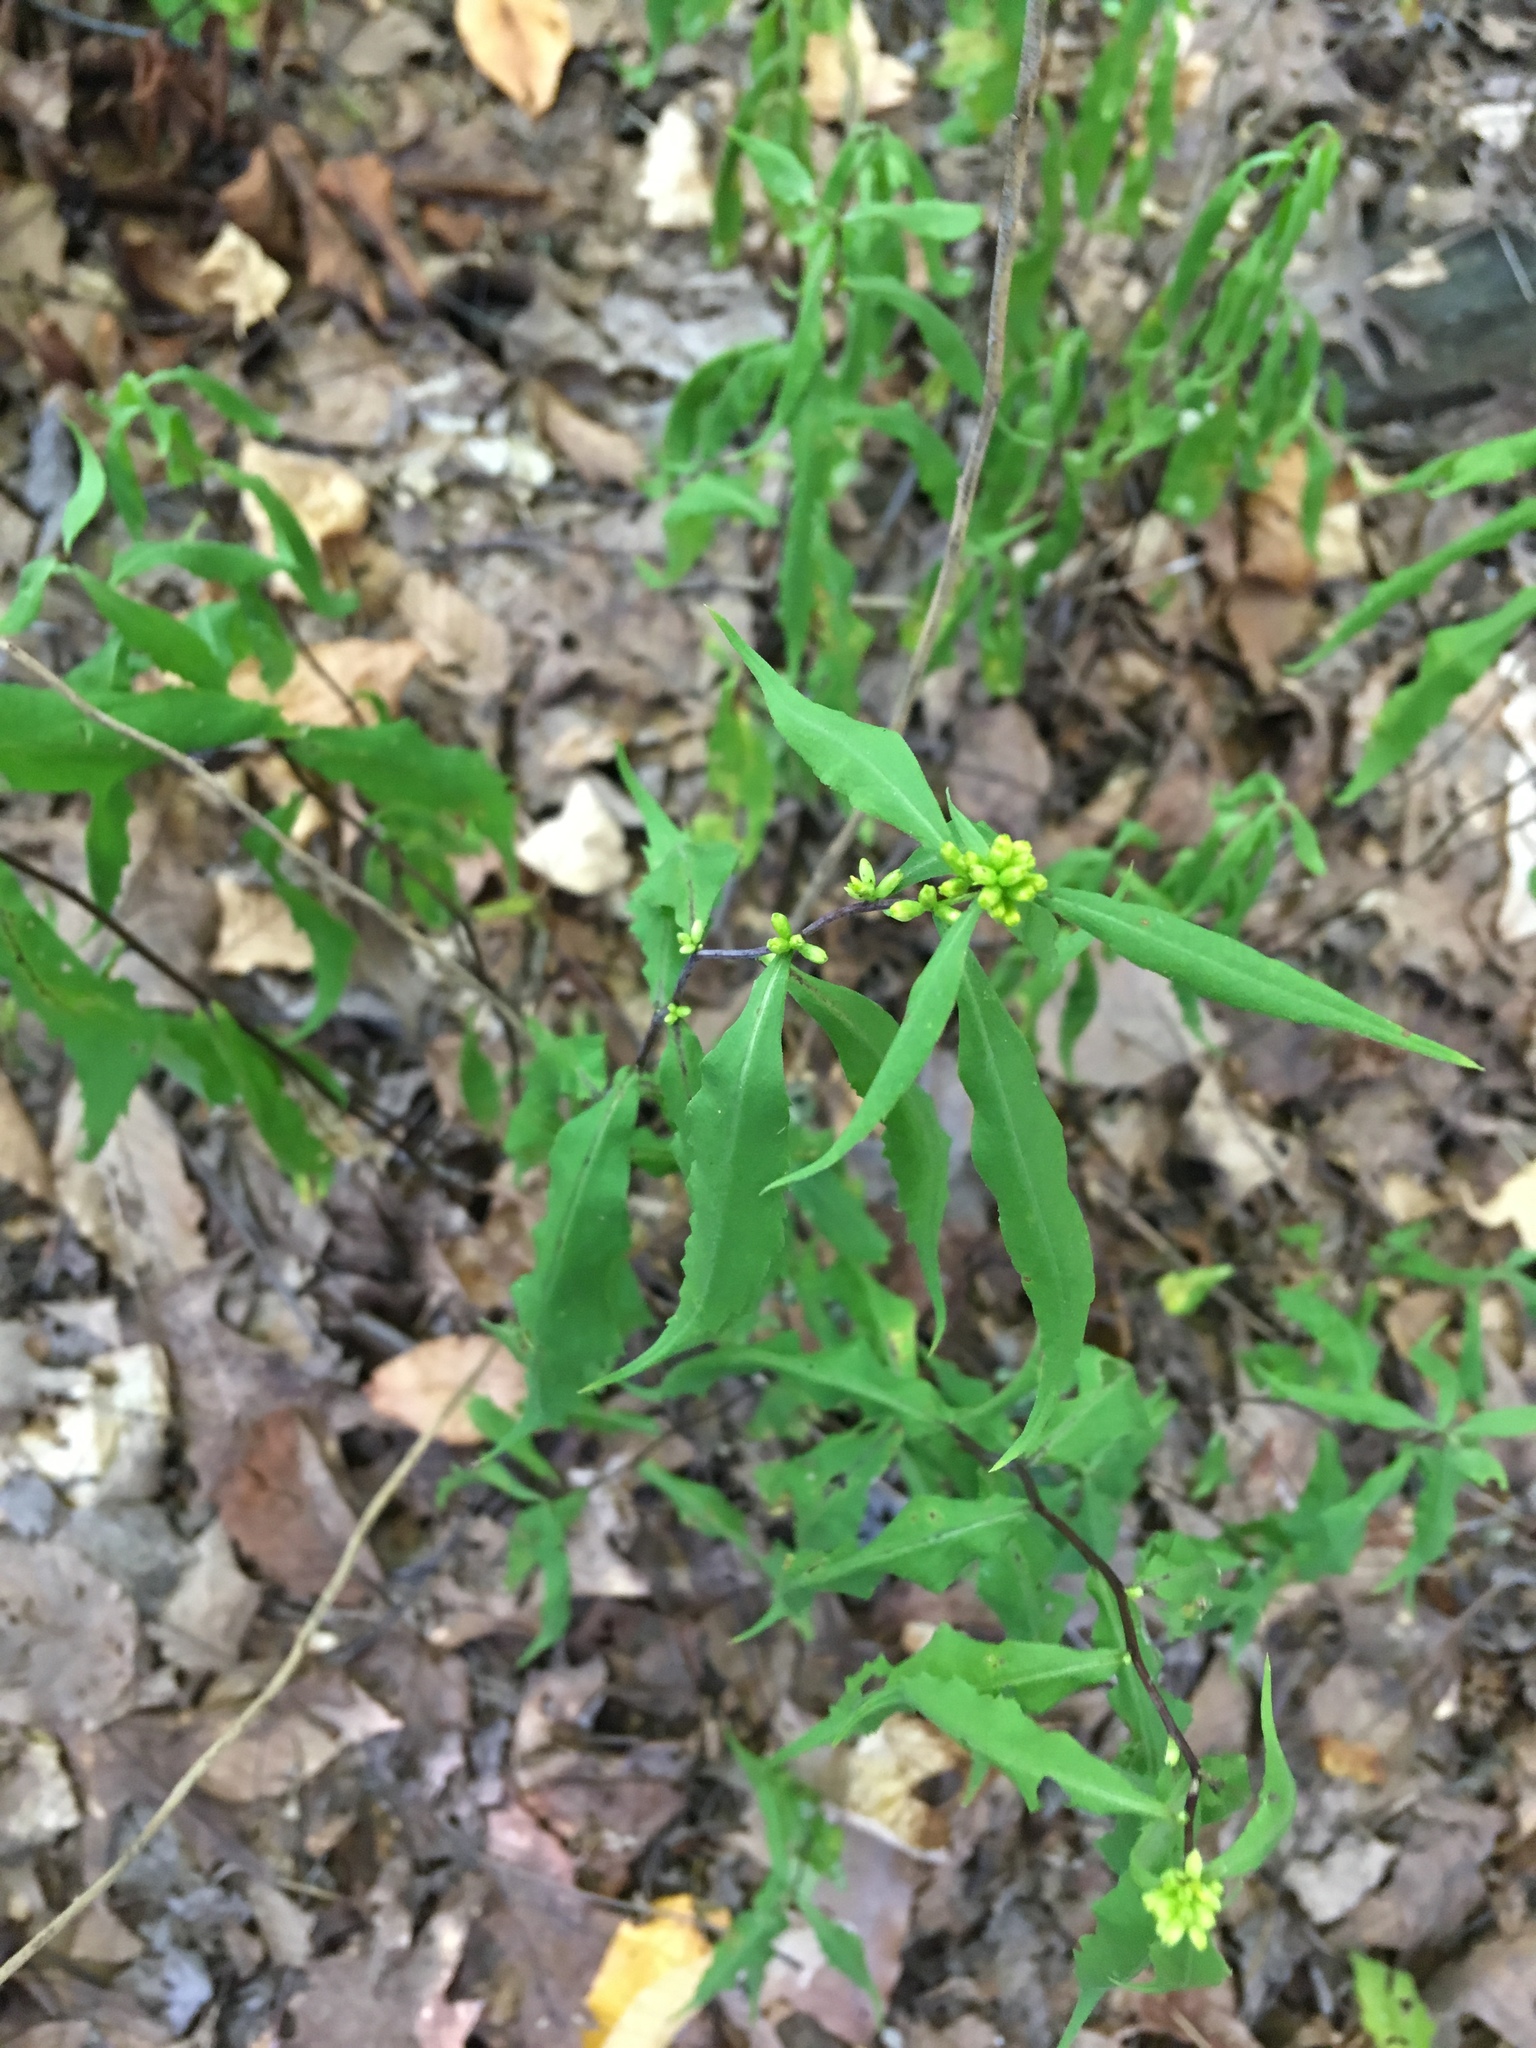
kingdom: Plantae
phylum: Tracheophyta
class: Magnoliopsida
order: Asterales
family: Asteraceae
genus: Solidago
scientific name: Solidago caesia
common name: Woodland goldenrod
